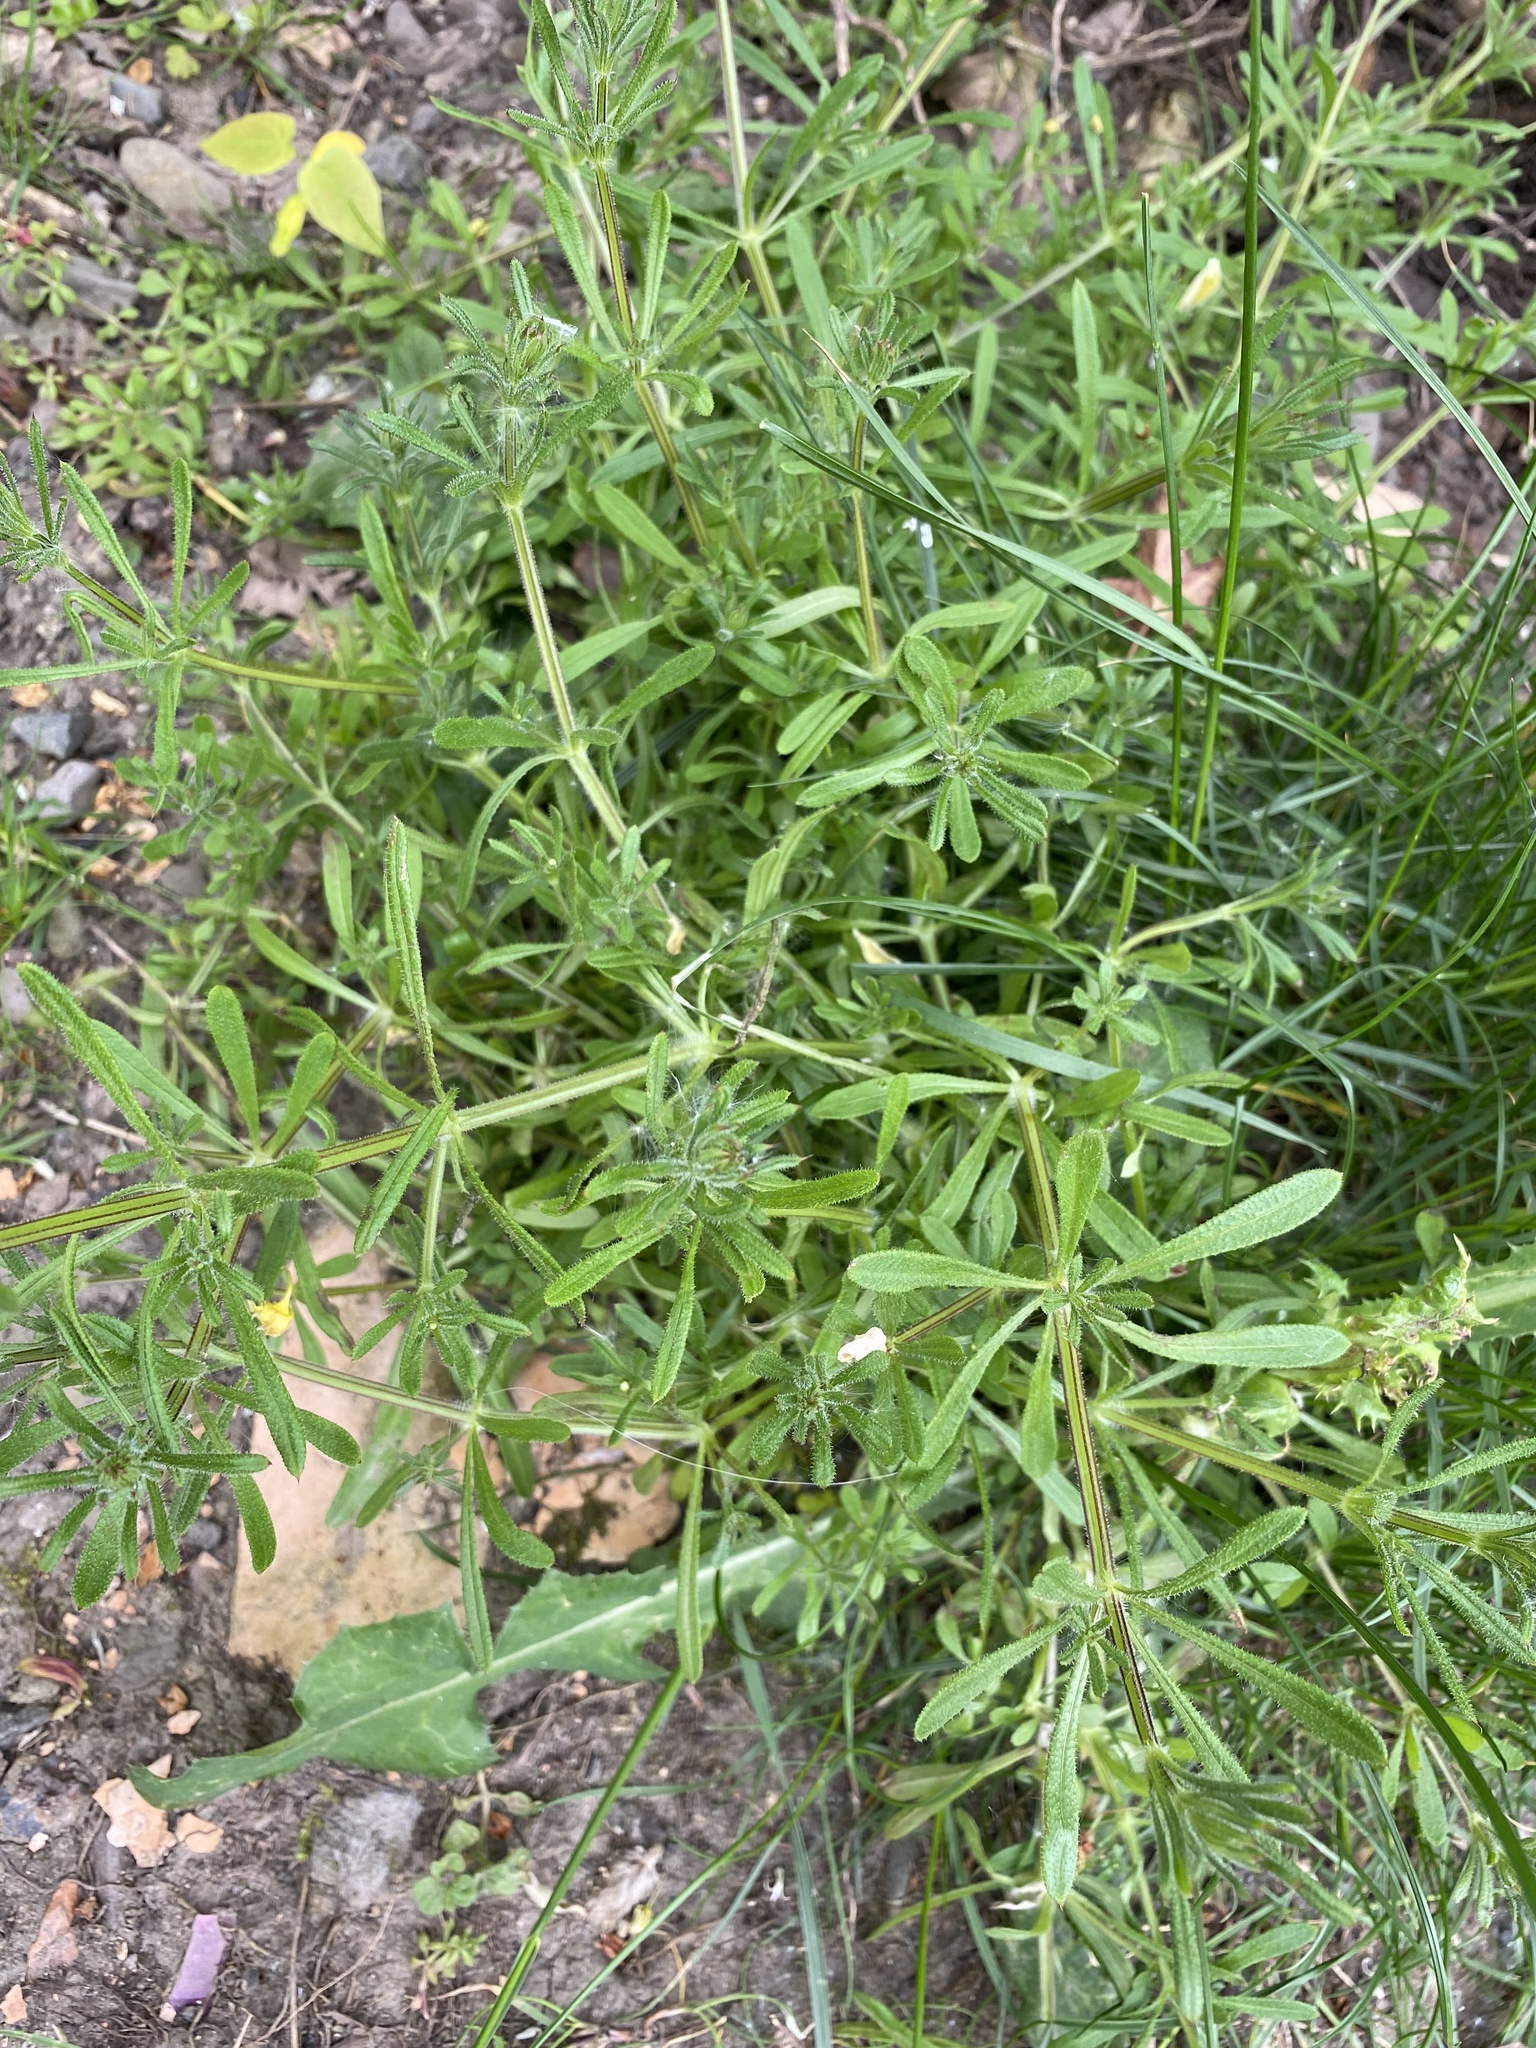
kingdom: Plantae
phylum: Tracheophyta
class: Magnoliopsida
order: Gentianales
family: Rubiaceae
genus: Galium
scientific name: Galium aparine
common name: Cleavers
